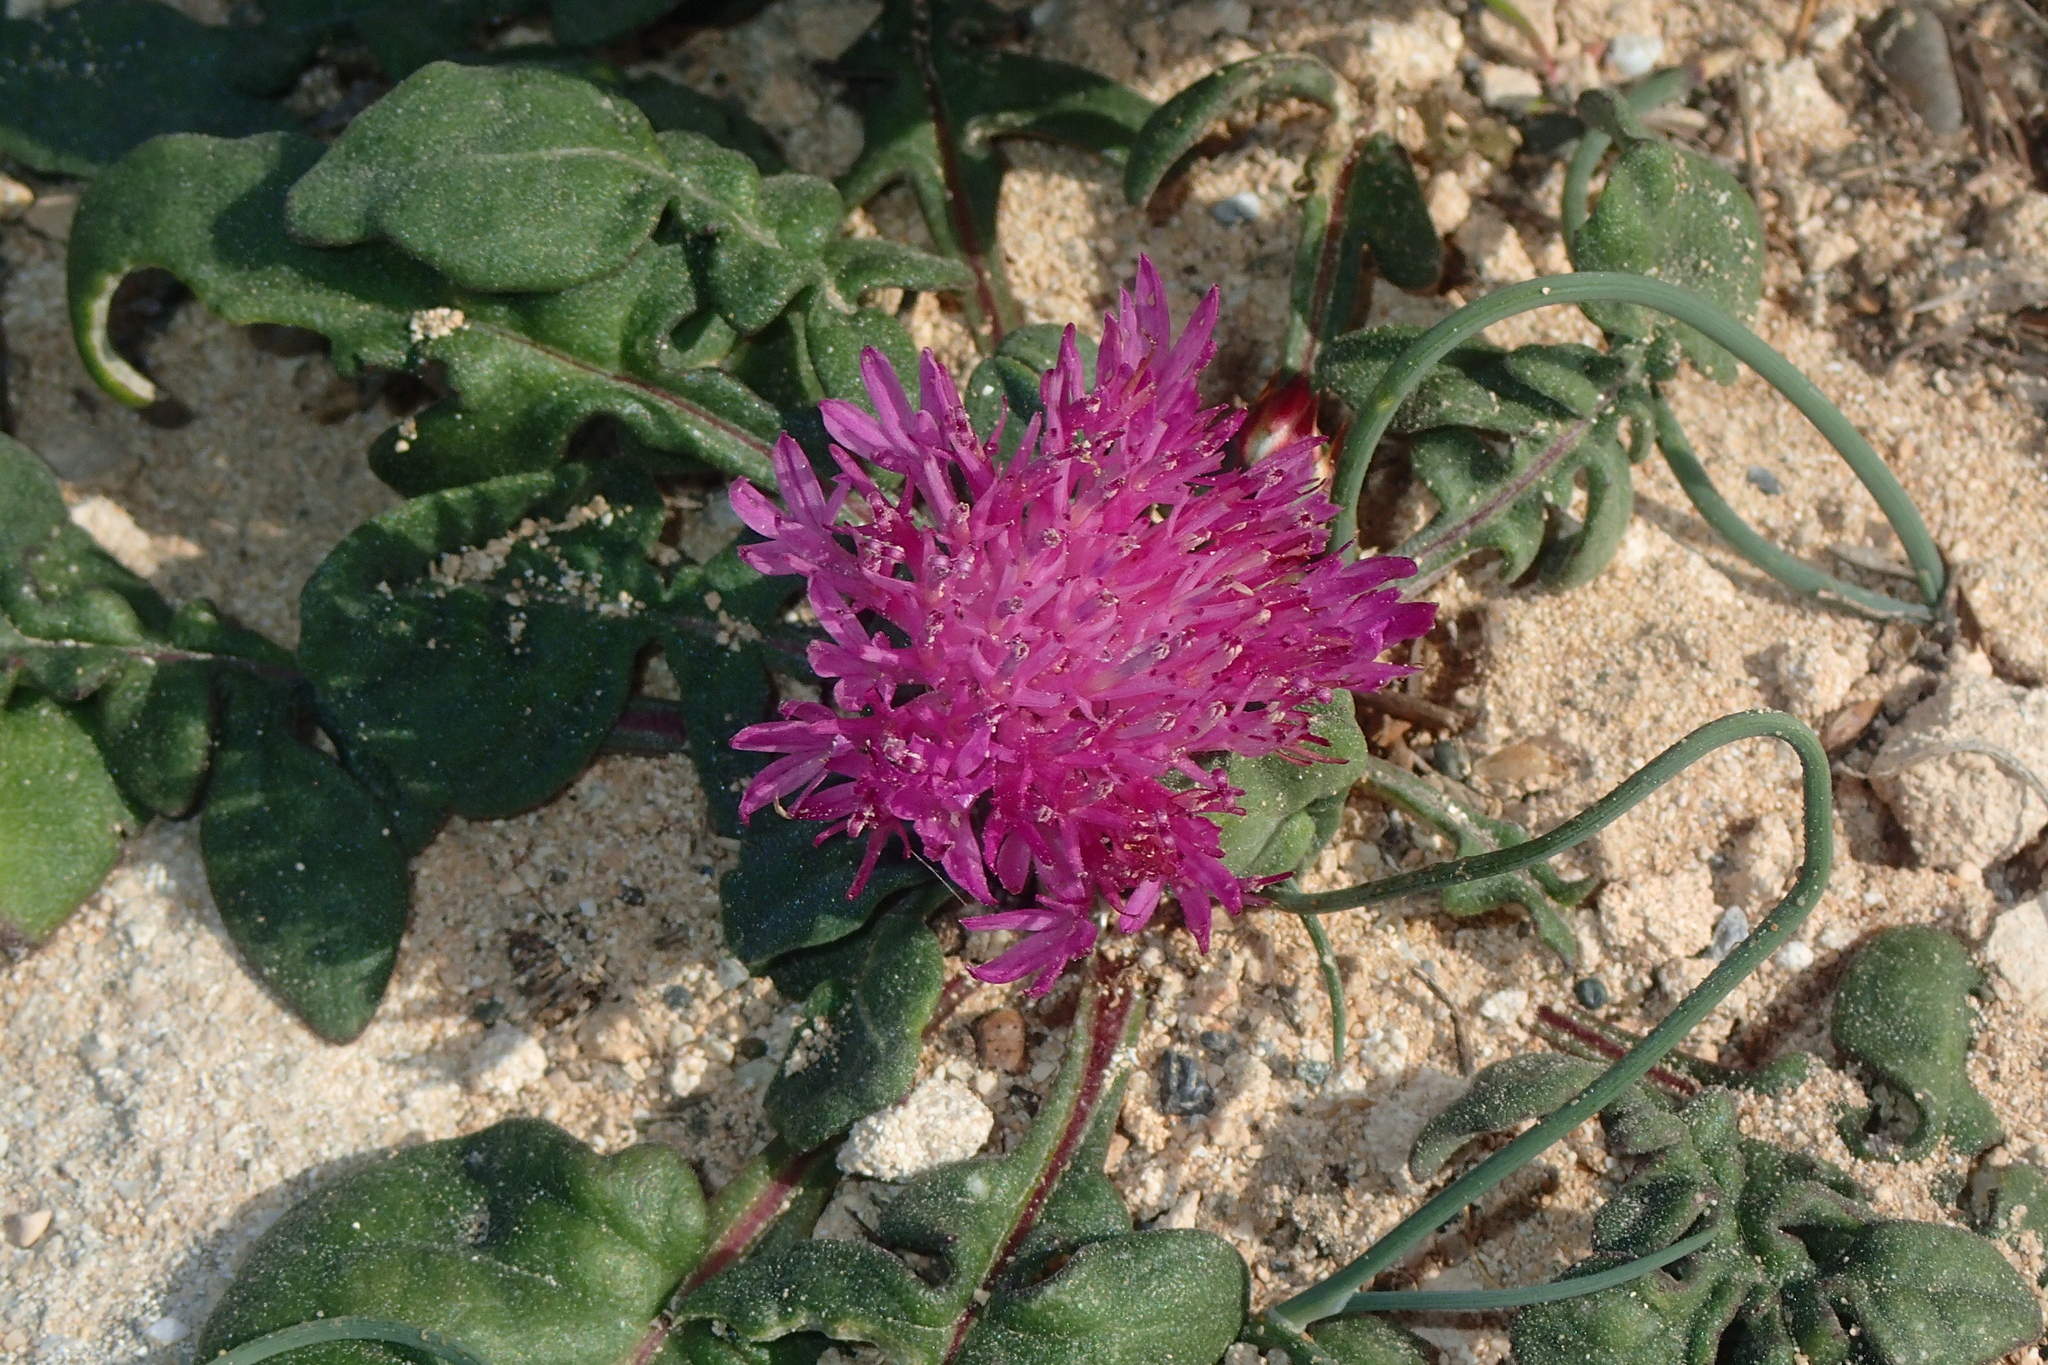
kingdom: Plantae
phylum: Tracheophyta
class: Magnoliopsida
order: Asterales
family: Asteraceae
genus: Crocodilium
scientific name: Crocodilium creticum
